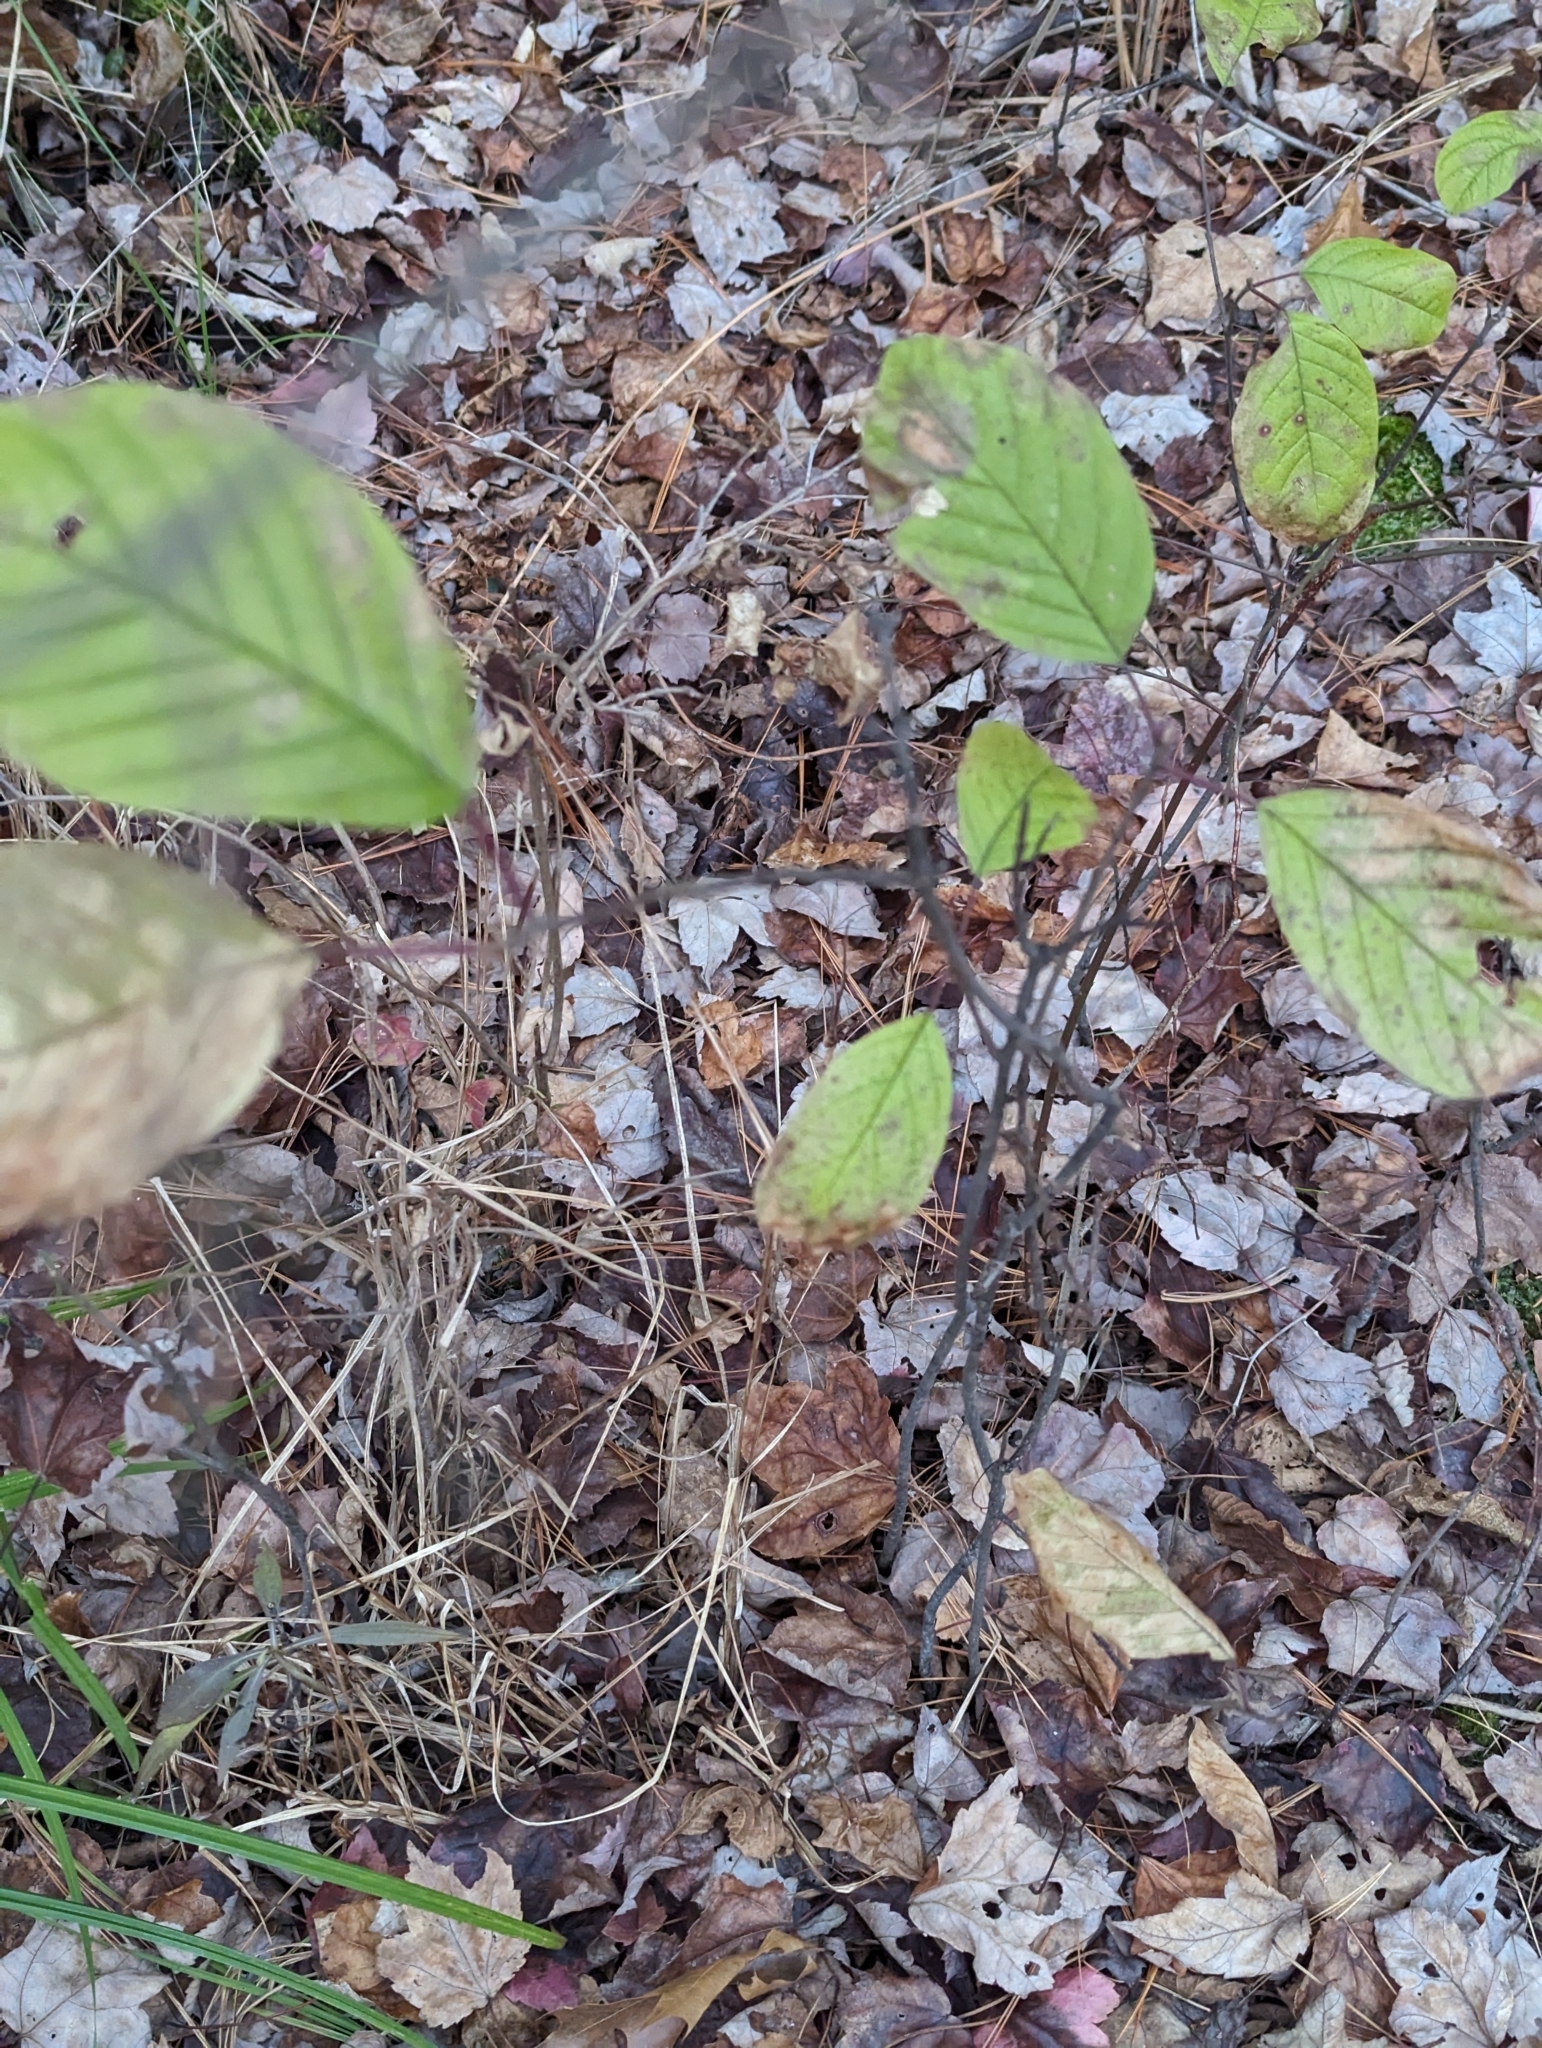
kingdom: Plantae
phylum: Tracheophyta
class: Magnoliopsida
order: Rosales
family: Rhamnaceae
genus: Frangula
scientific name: Frangula alnus
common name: Alder buckthorn
